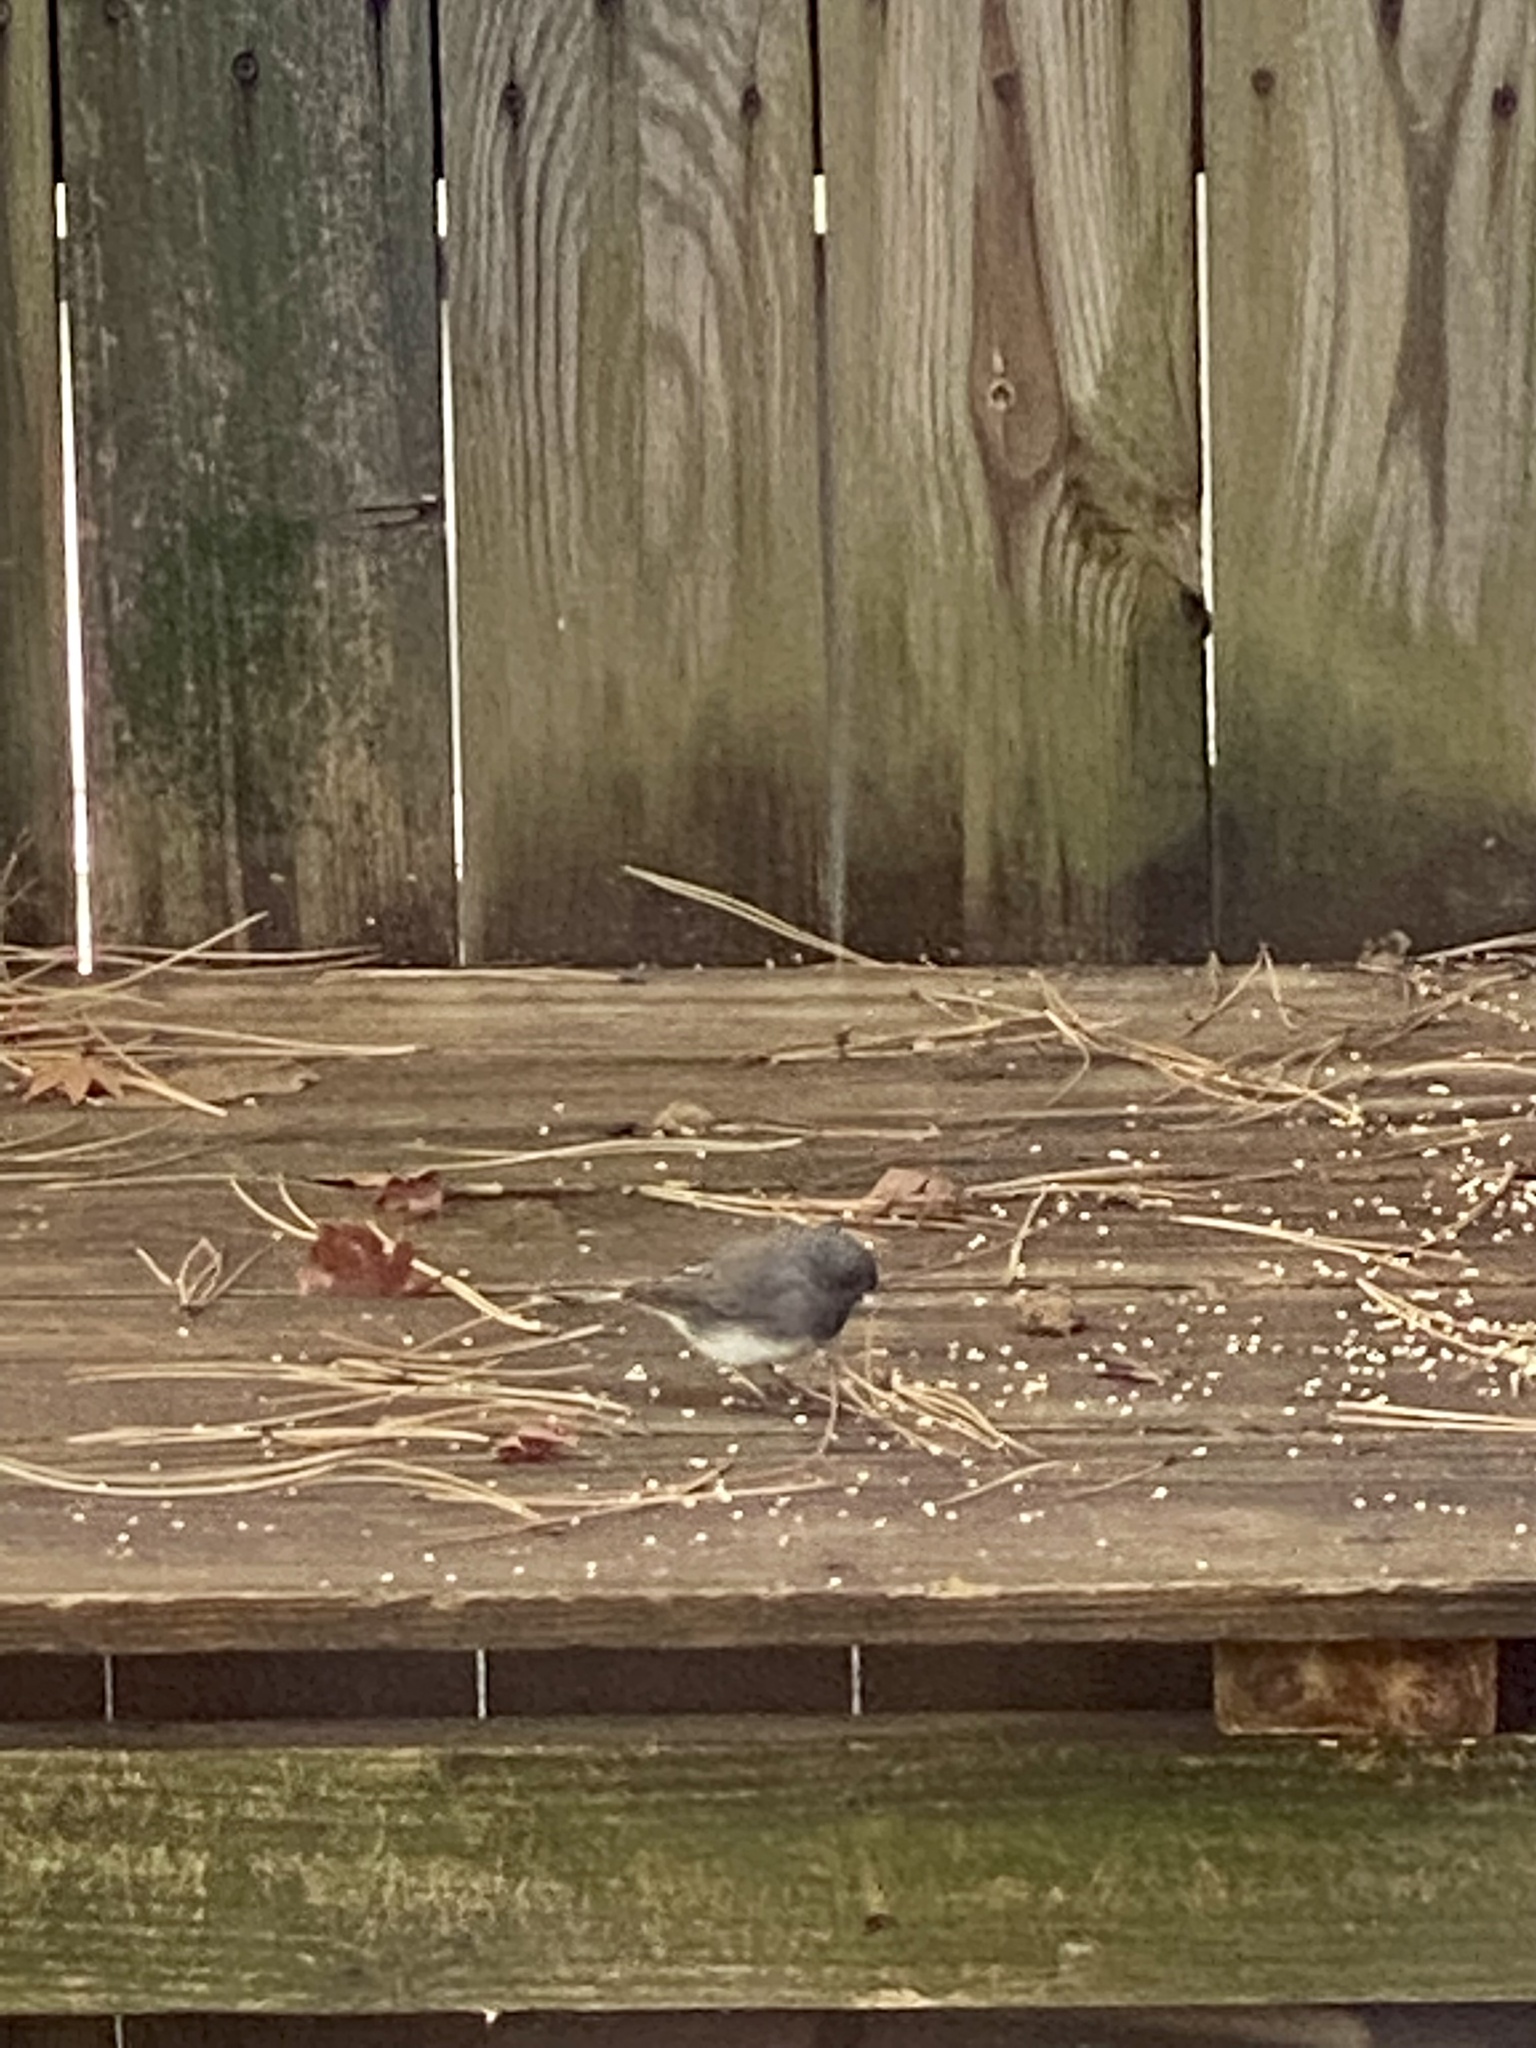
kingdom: Animalia
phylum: Chordata
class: Aves
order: Passeriformes
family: Passerellidae
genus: Junco
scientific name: Junco hyemalis
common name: Dark-eyed junco
